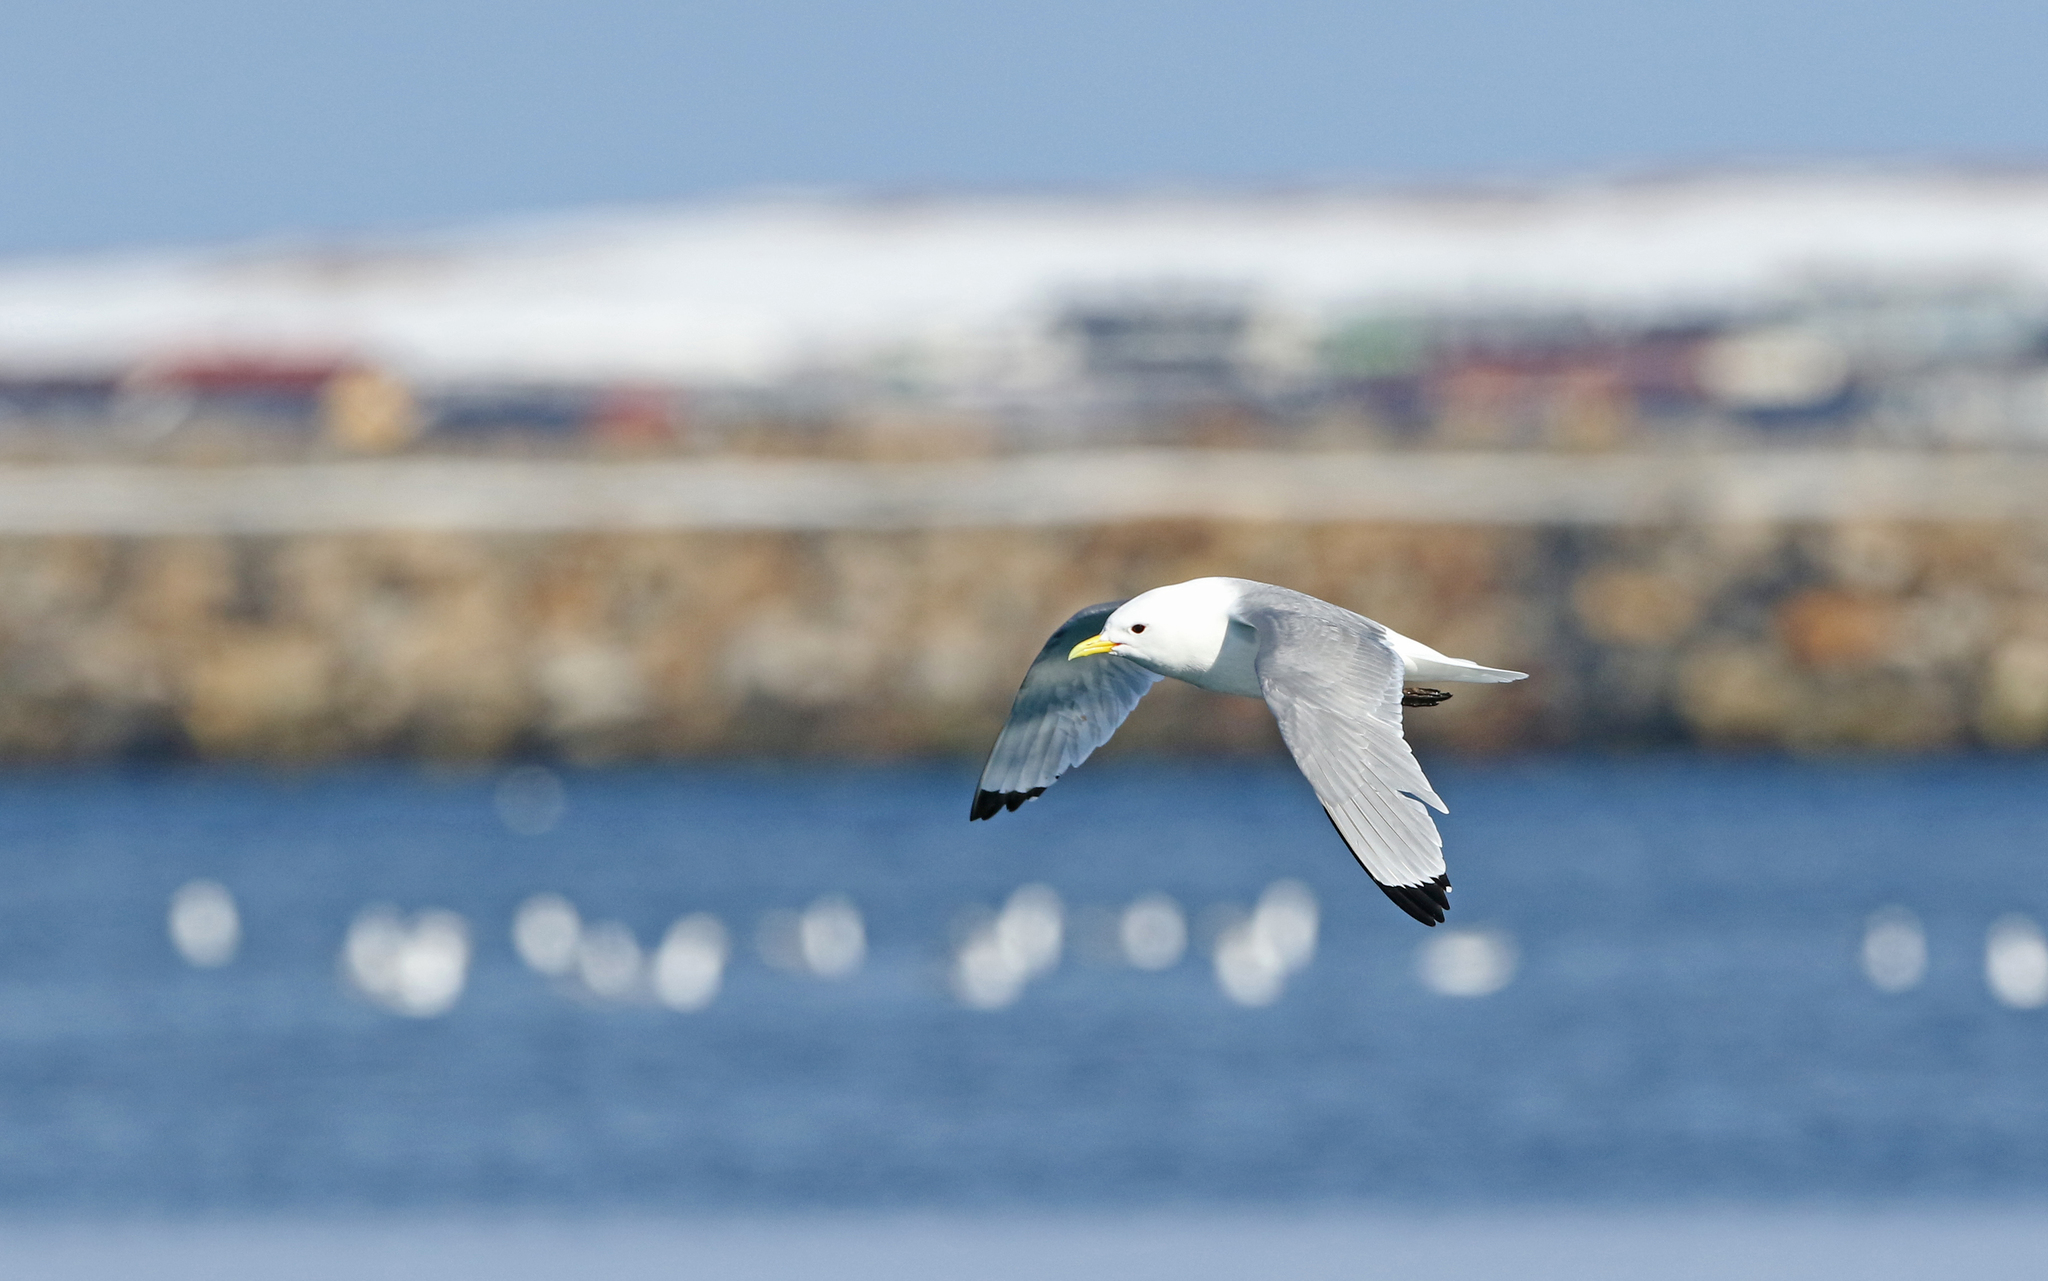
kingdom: Animalia
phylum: Chordata
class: Aves
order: Charadriiformes
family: Laridae
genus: Rissa
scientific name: Rissa tridactyla
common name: Black-legged kittiwake
